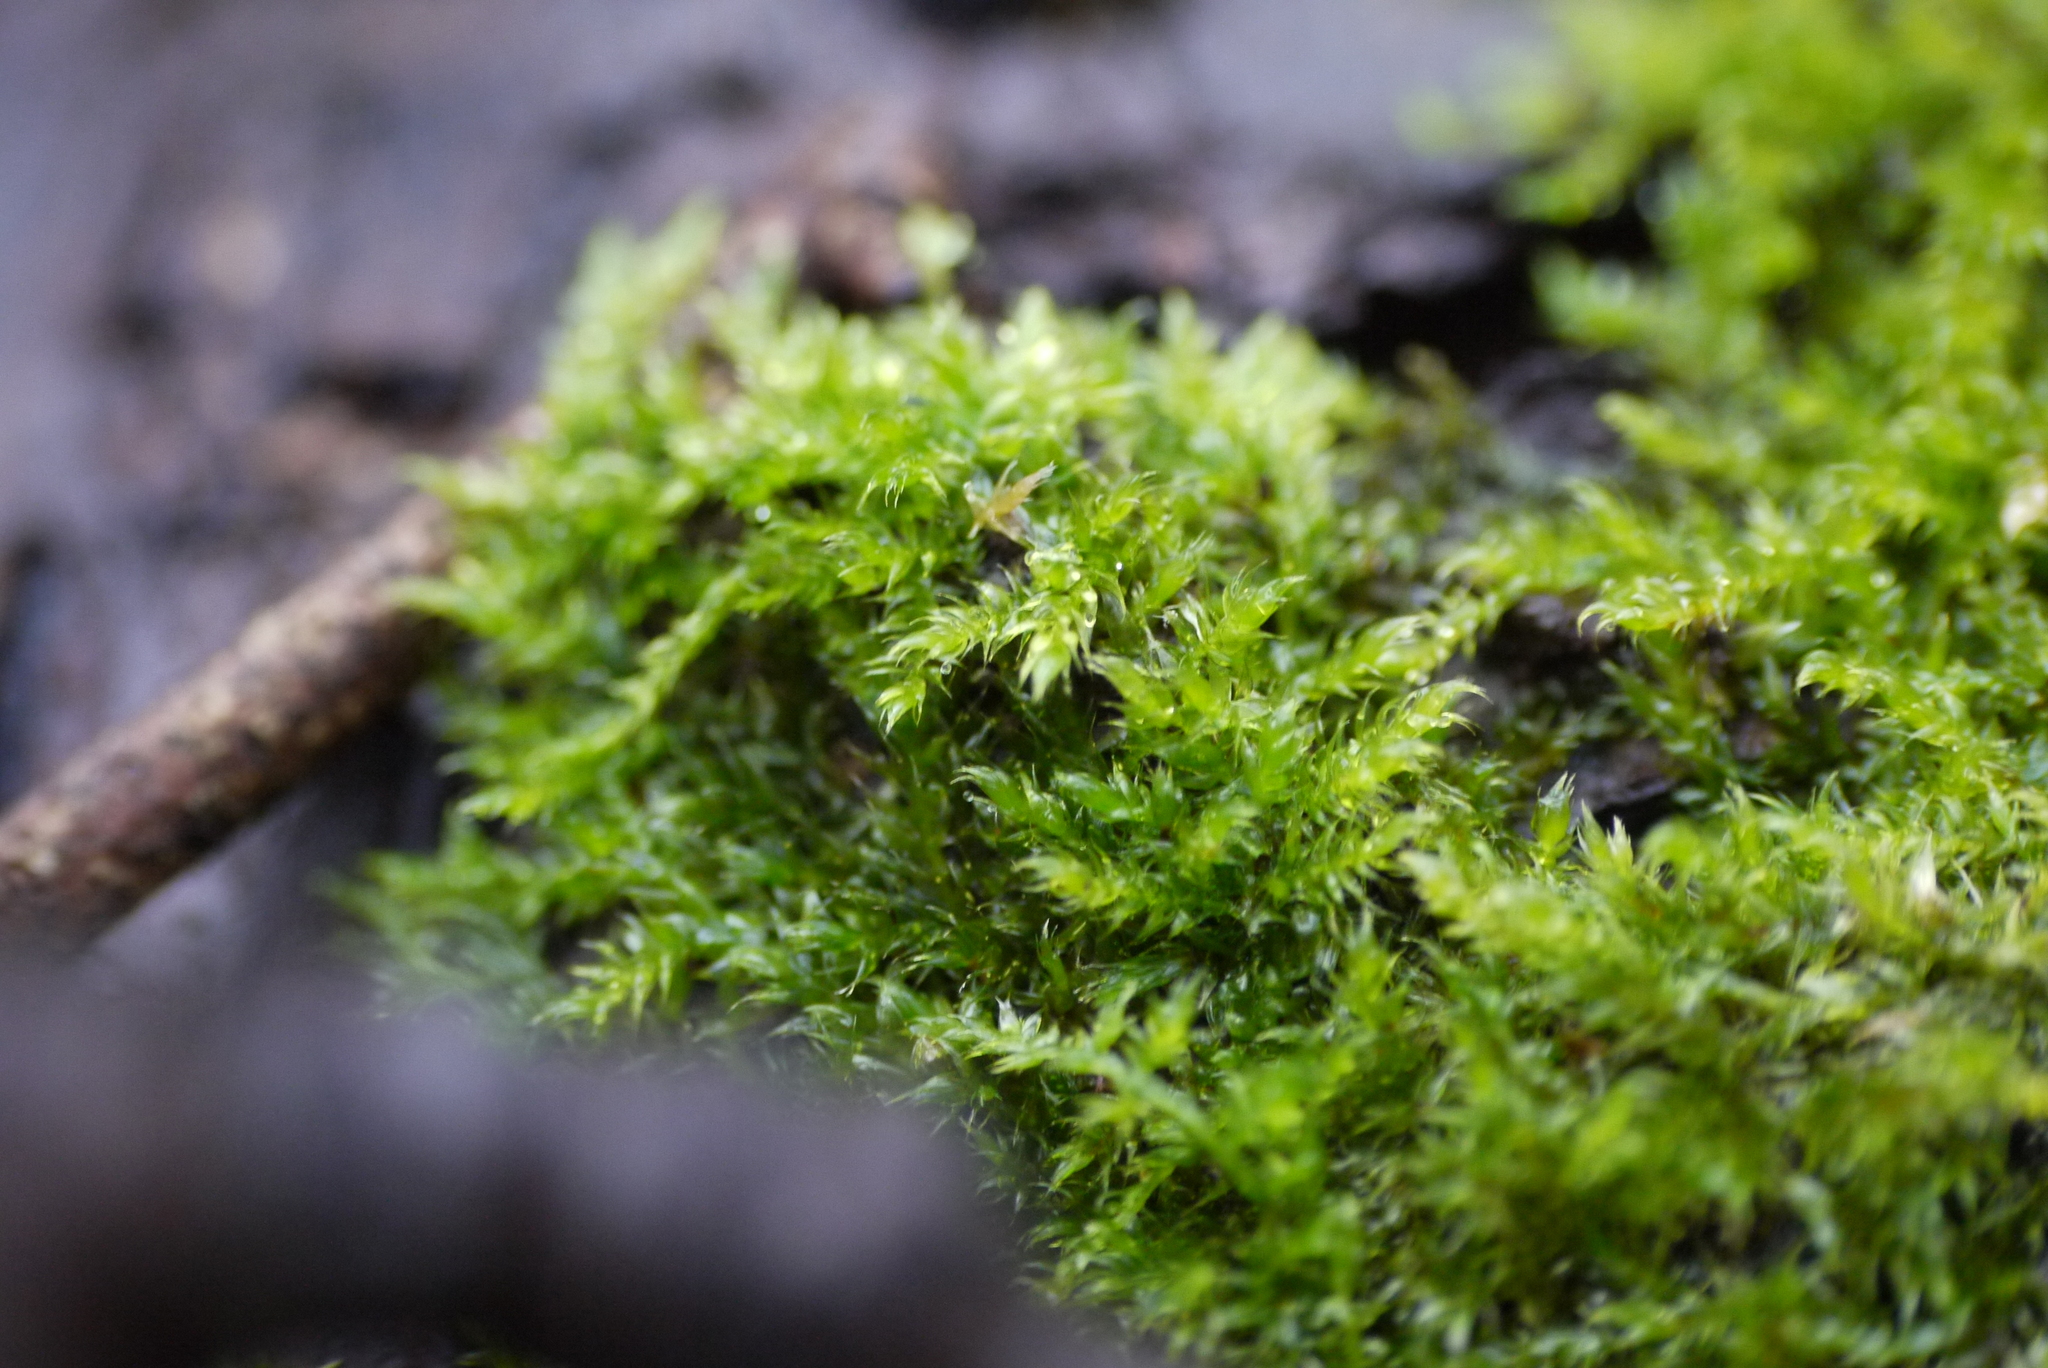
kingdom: Plantae
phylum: Bryophyta
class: Bryopsida
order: Hypnales
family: Hypnaceae
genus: Hypnum
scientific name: Hypnum cupressiforme
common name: Cypress-leaved plait-moss
